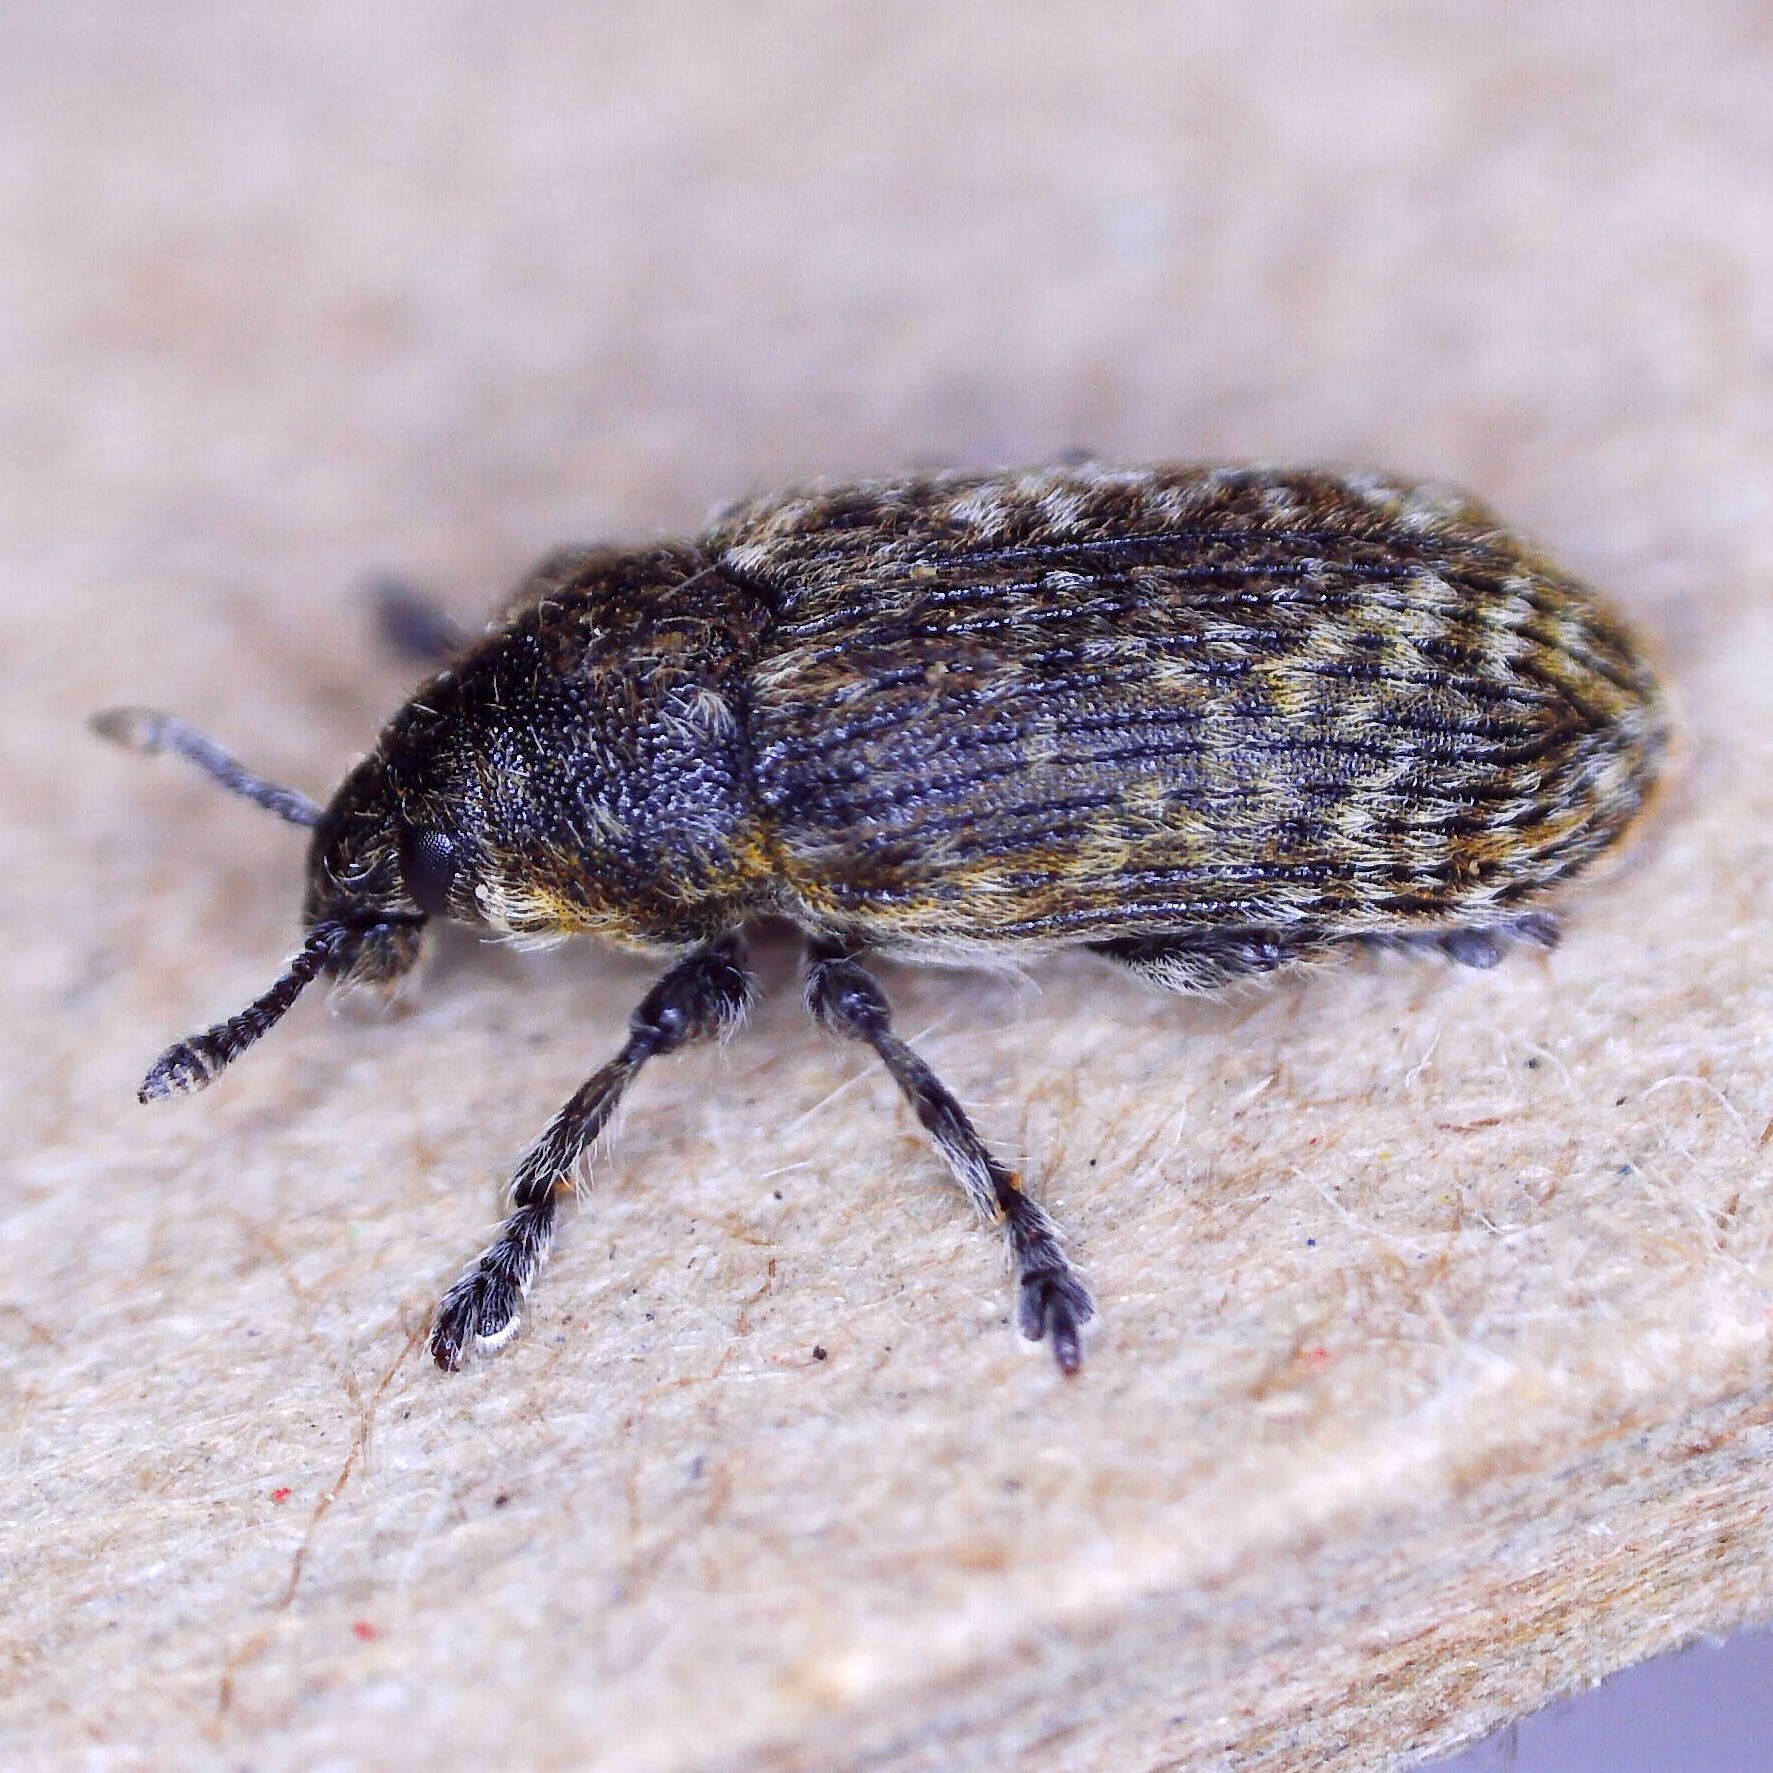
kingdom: Animalia
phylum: Arthropoda
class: Insecta
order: Coleoptera
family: Curculionidae
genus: Rhinocyllus
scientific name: Rhinocyllus conicus
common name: Weevil
